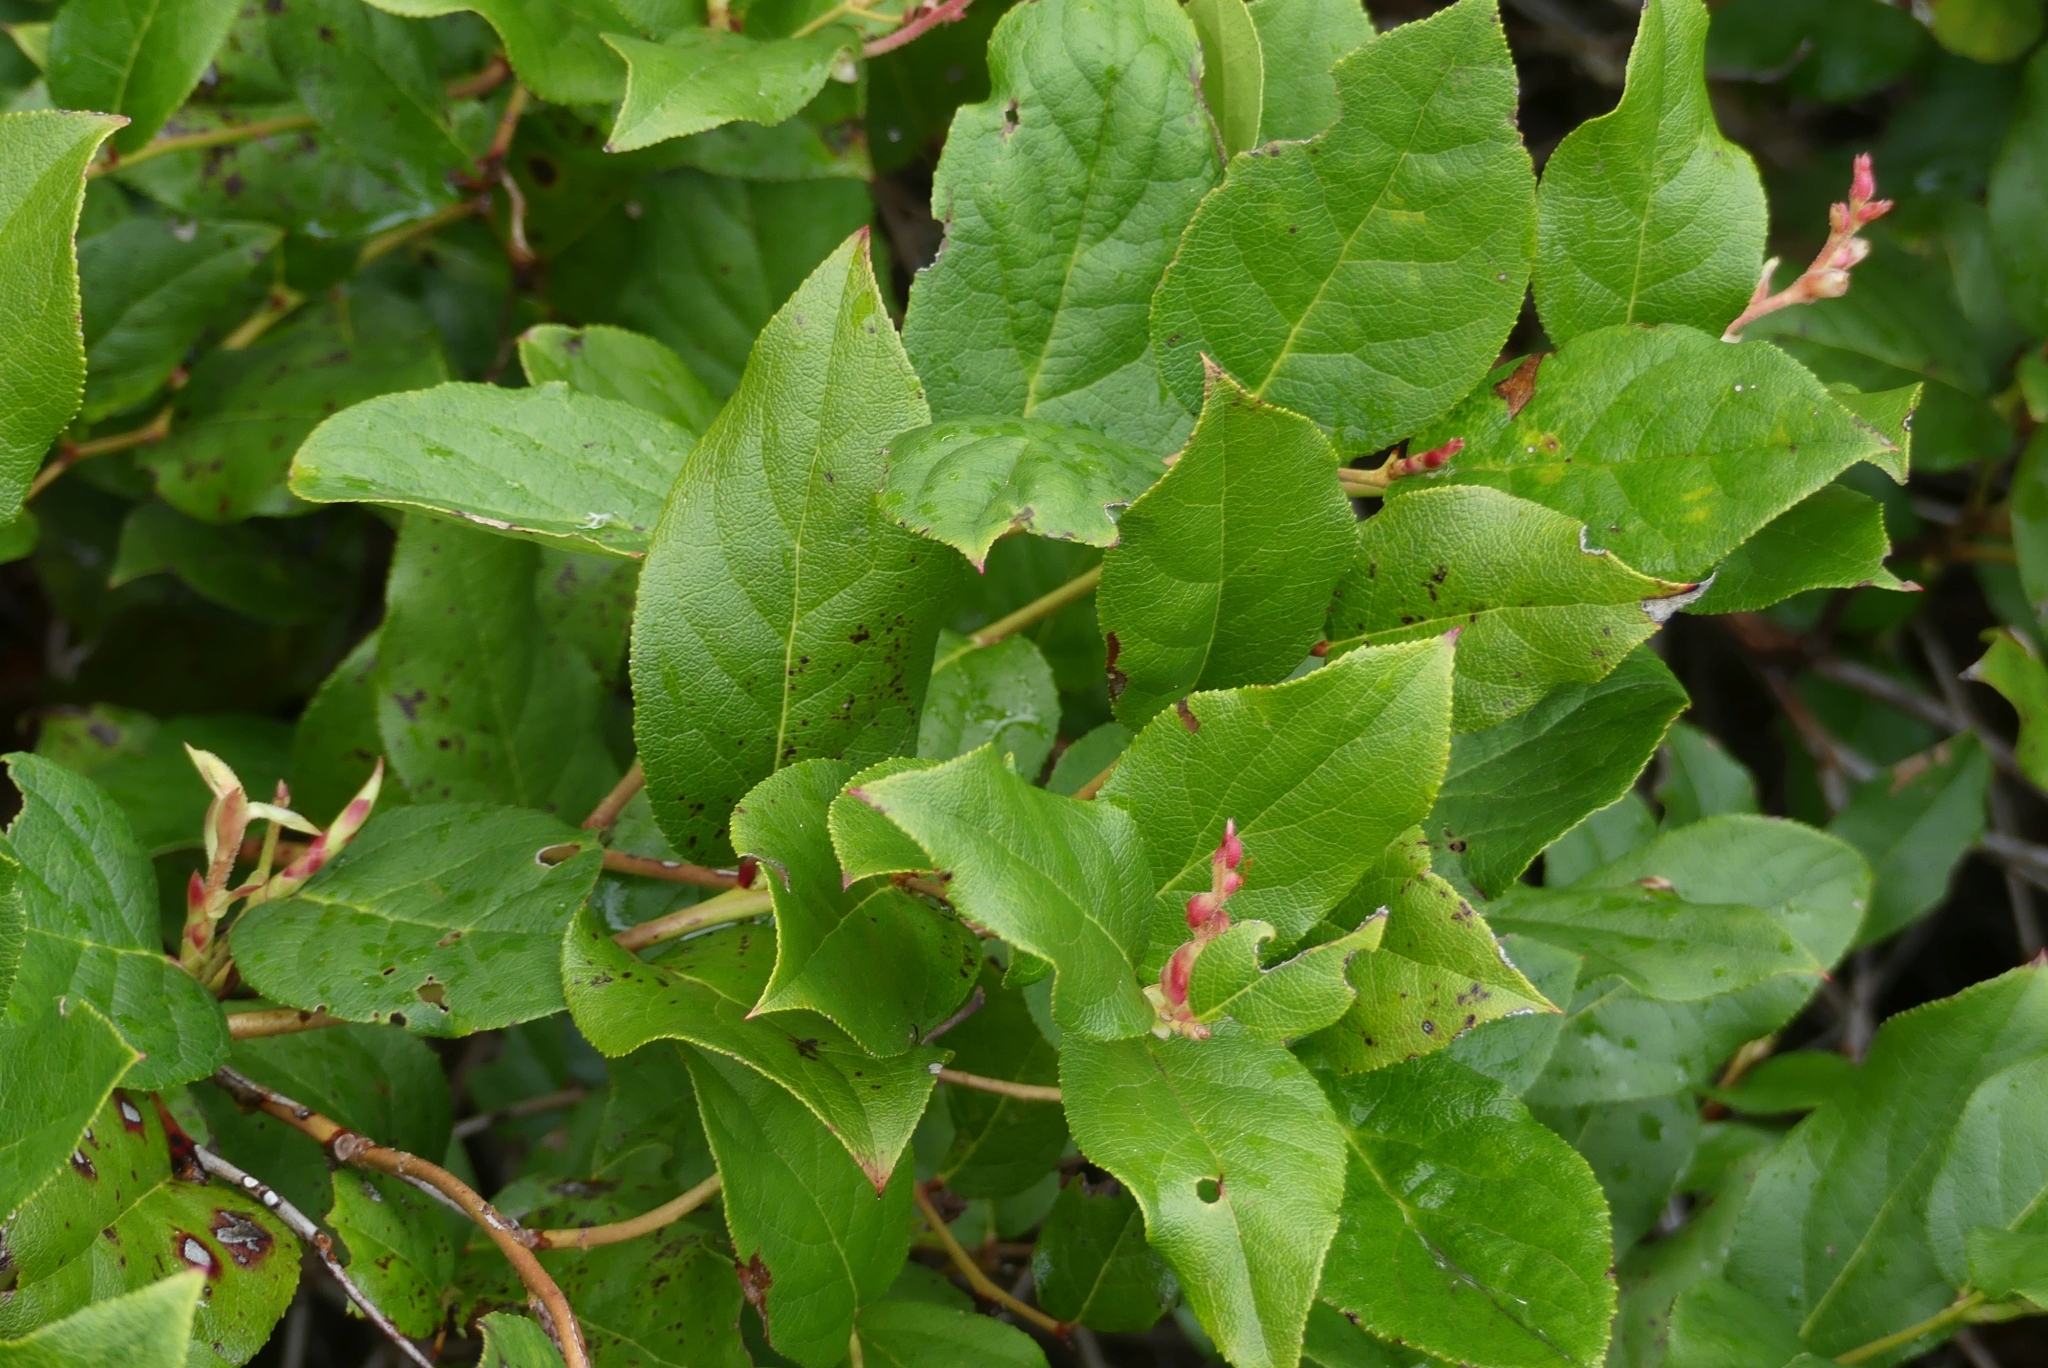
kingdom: Plantae
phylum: Tracheophyta
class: Magnoliopsida
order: Ericales
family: Ericaceae
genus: Gaultheria
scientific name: Gaultheria shallon
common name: Shallon
